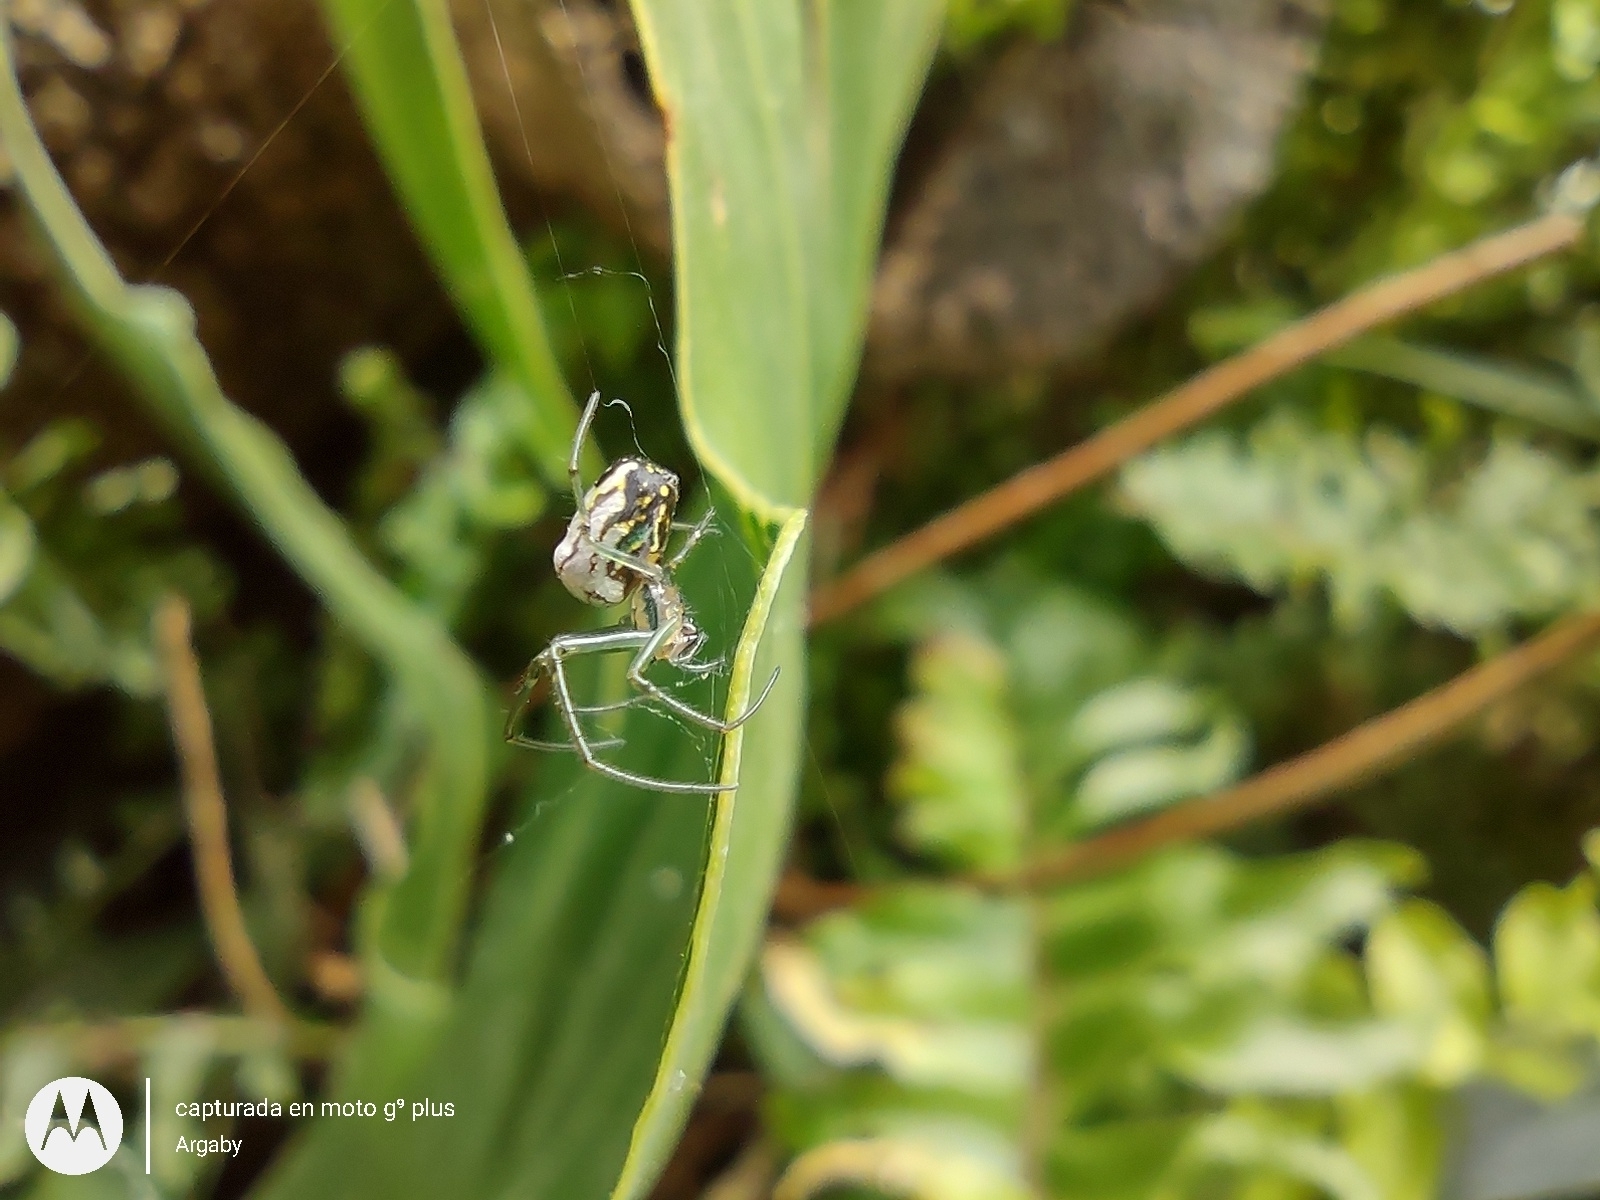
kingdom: Animalia
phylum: Arthropoda
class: Arachnida
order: Araneae
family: Tetragnathidae
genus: Leucauge
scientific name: Leucauge volupis
